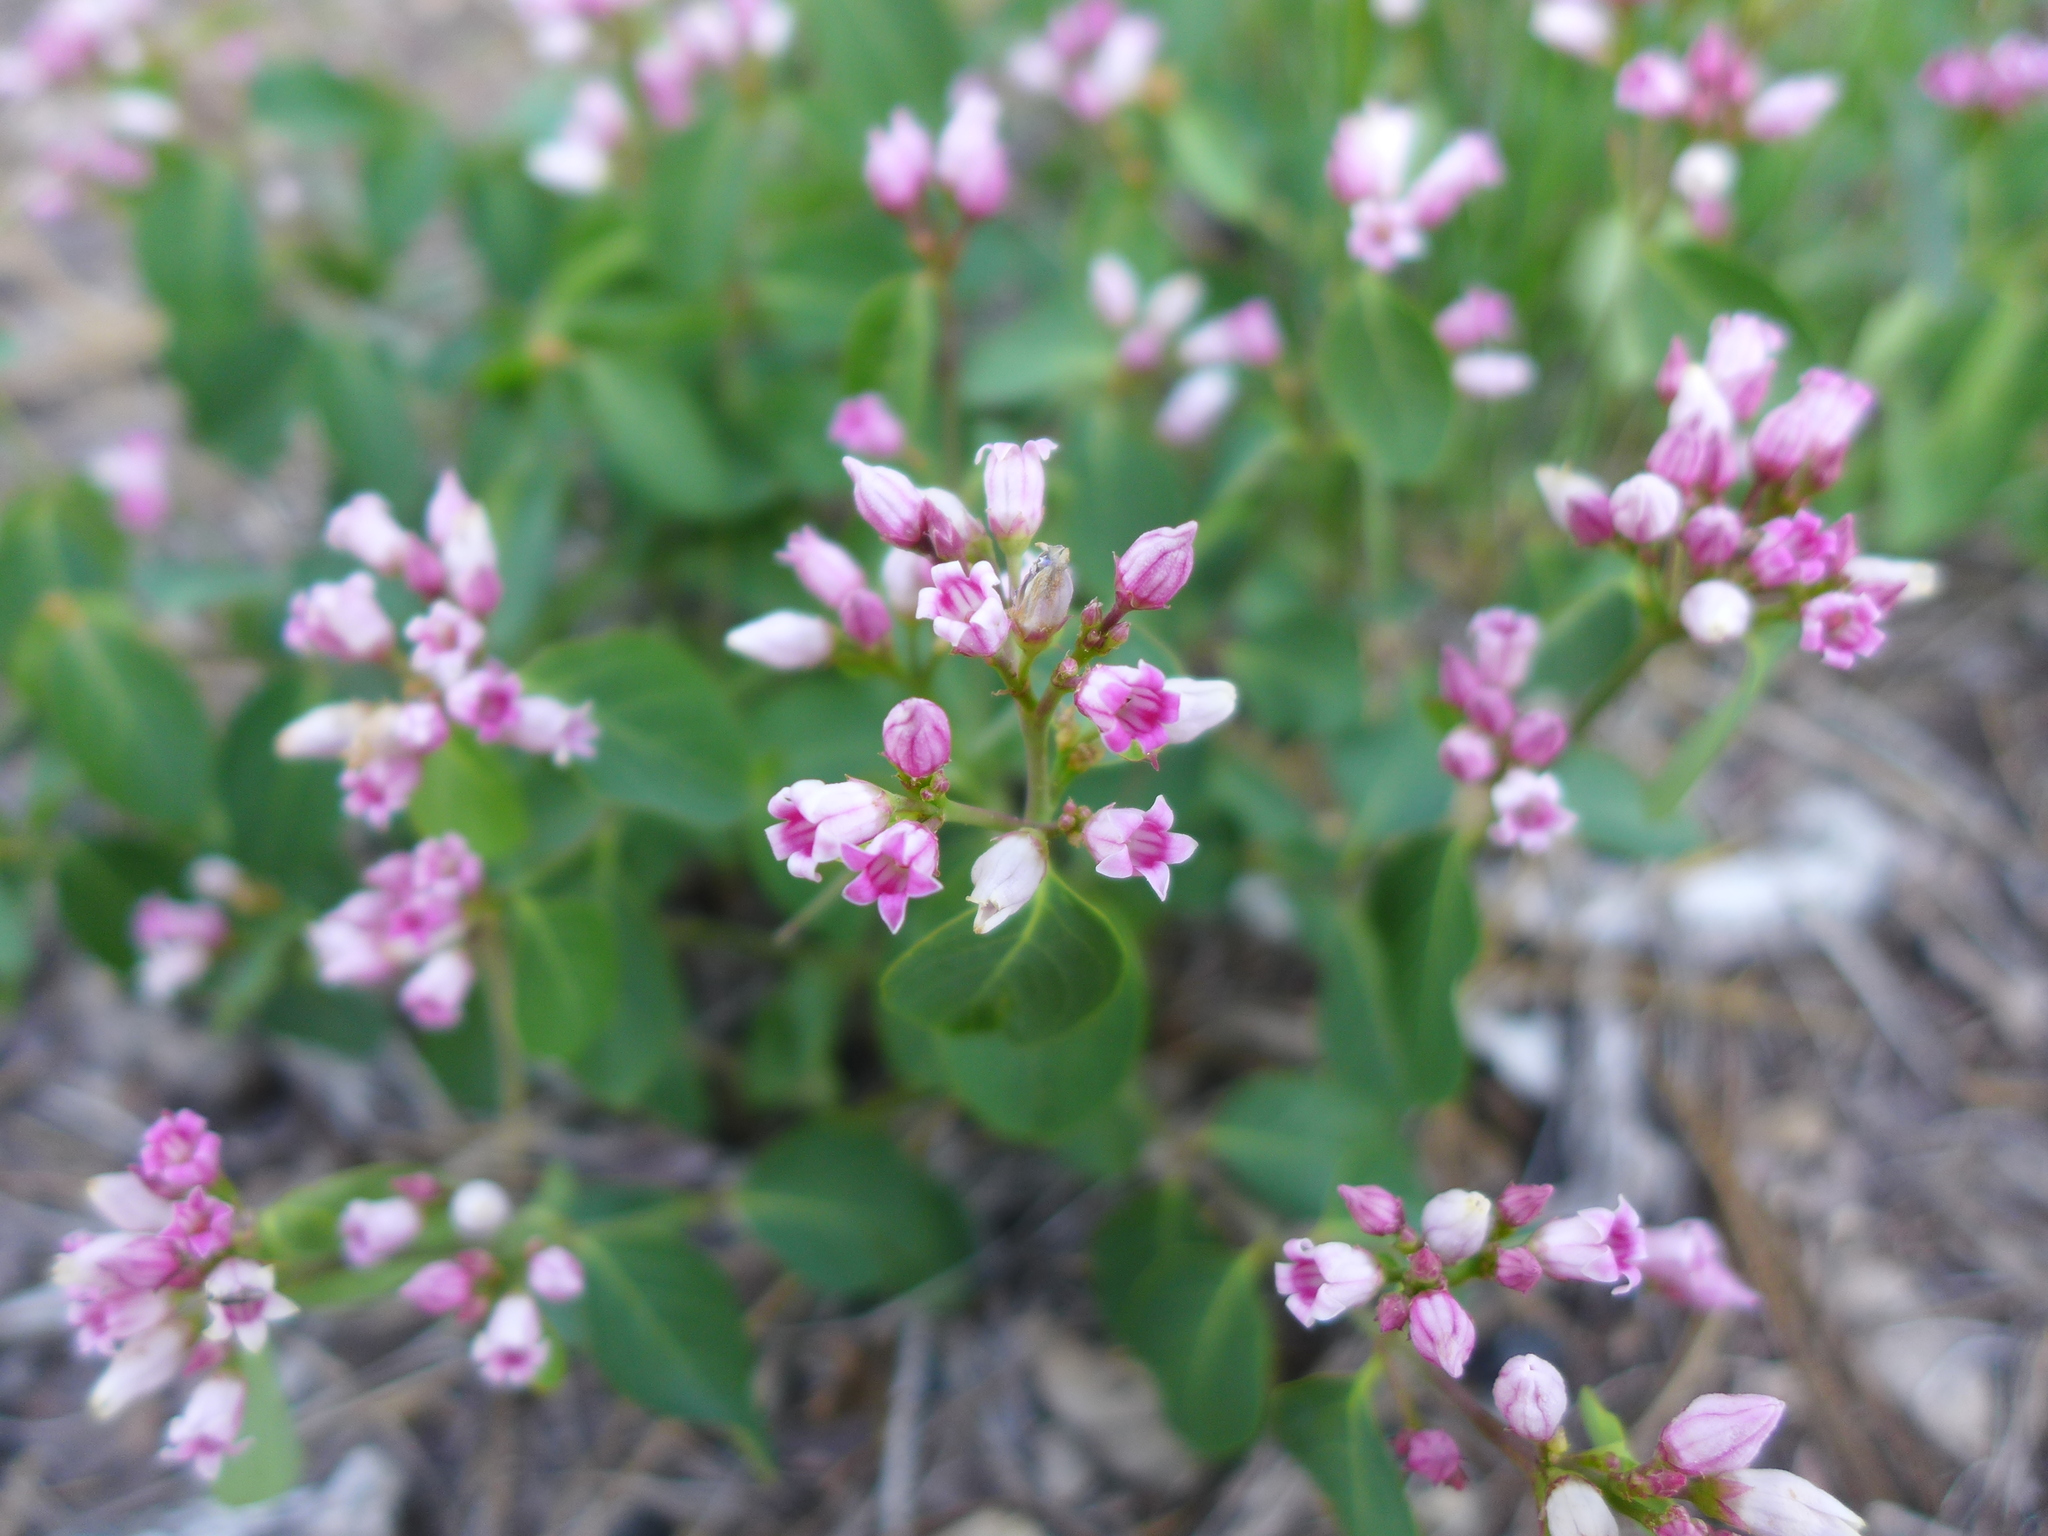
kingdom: Plantae
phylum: Tracheophyta
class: Magnoliopsida
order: Gentianales
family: Apocynaceae
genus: Apocynum
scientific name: Apocynum androsaemifolium
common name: Spreading dogbane
